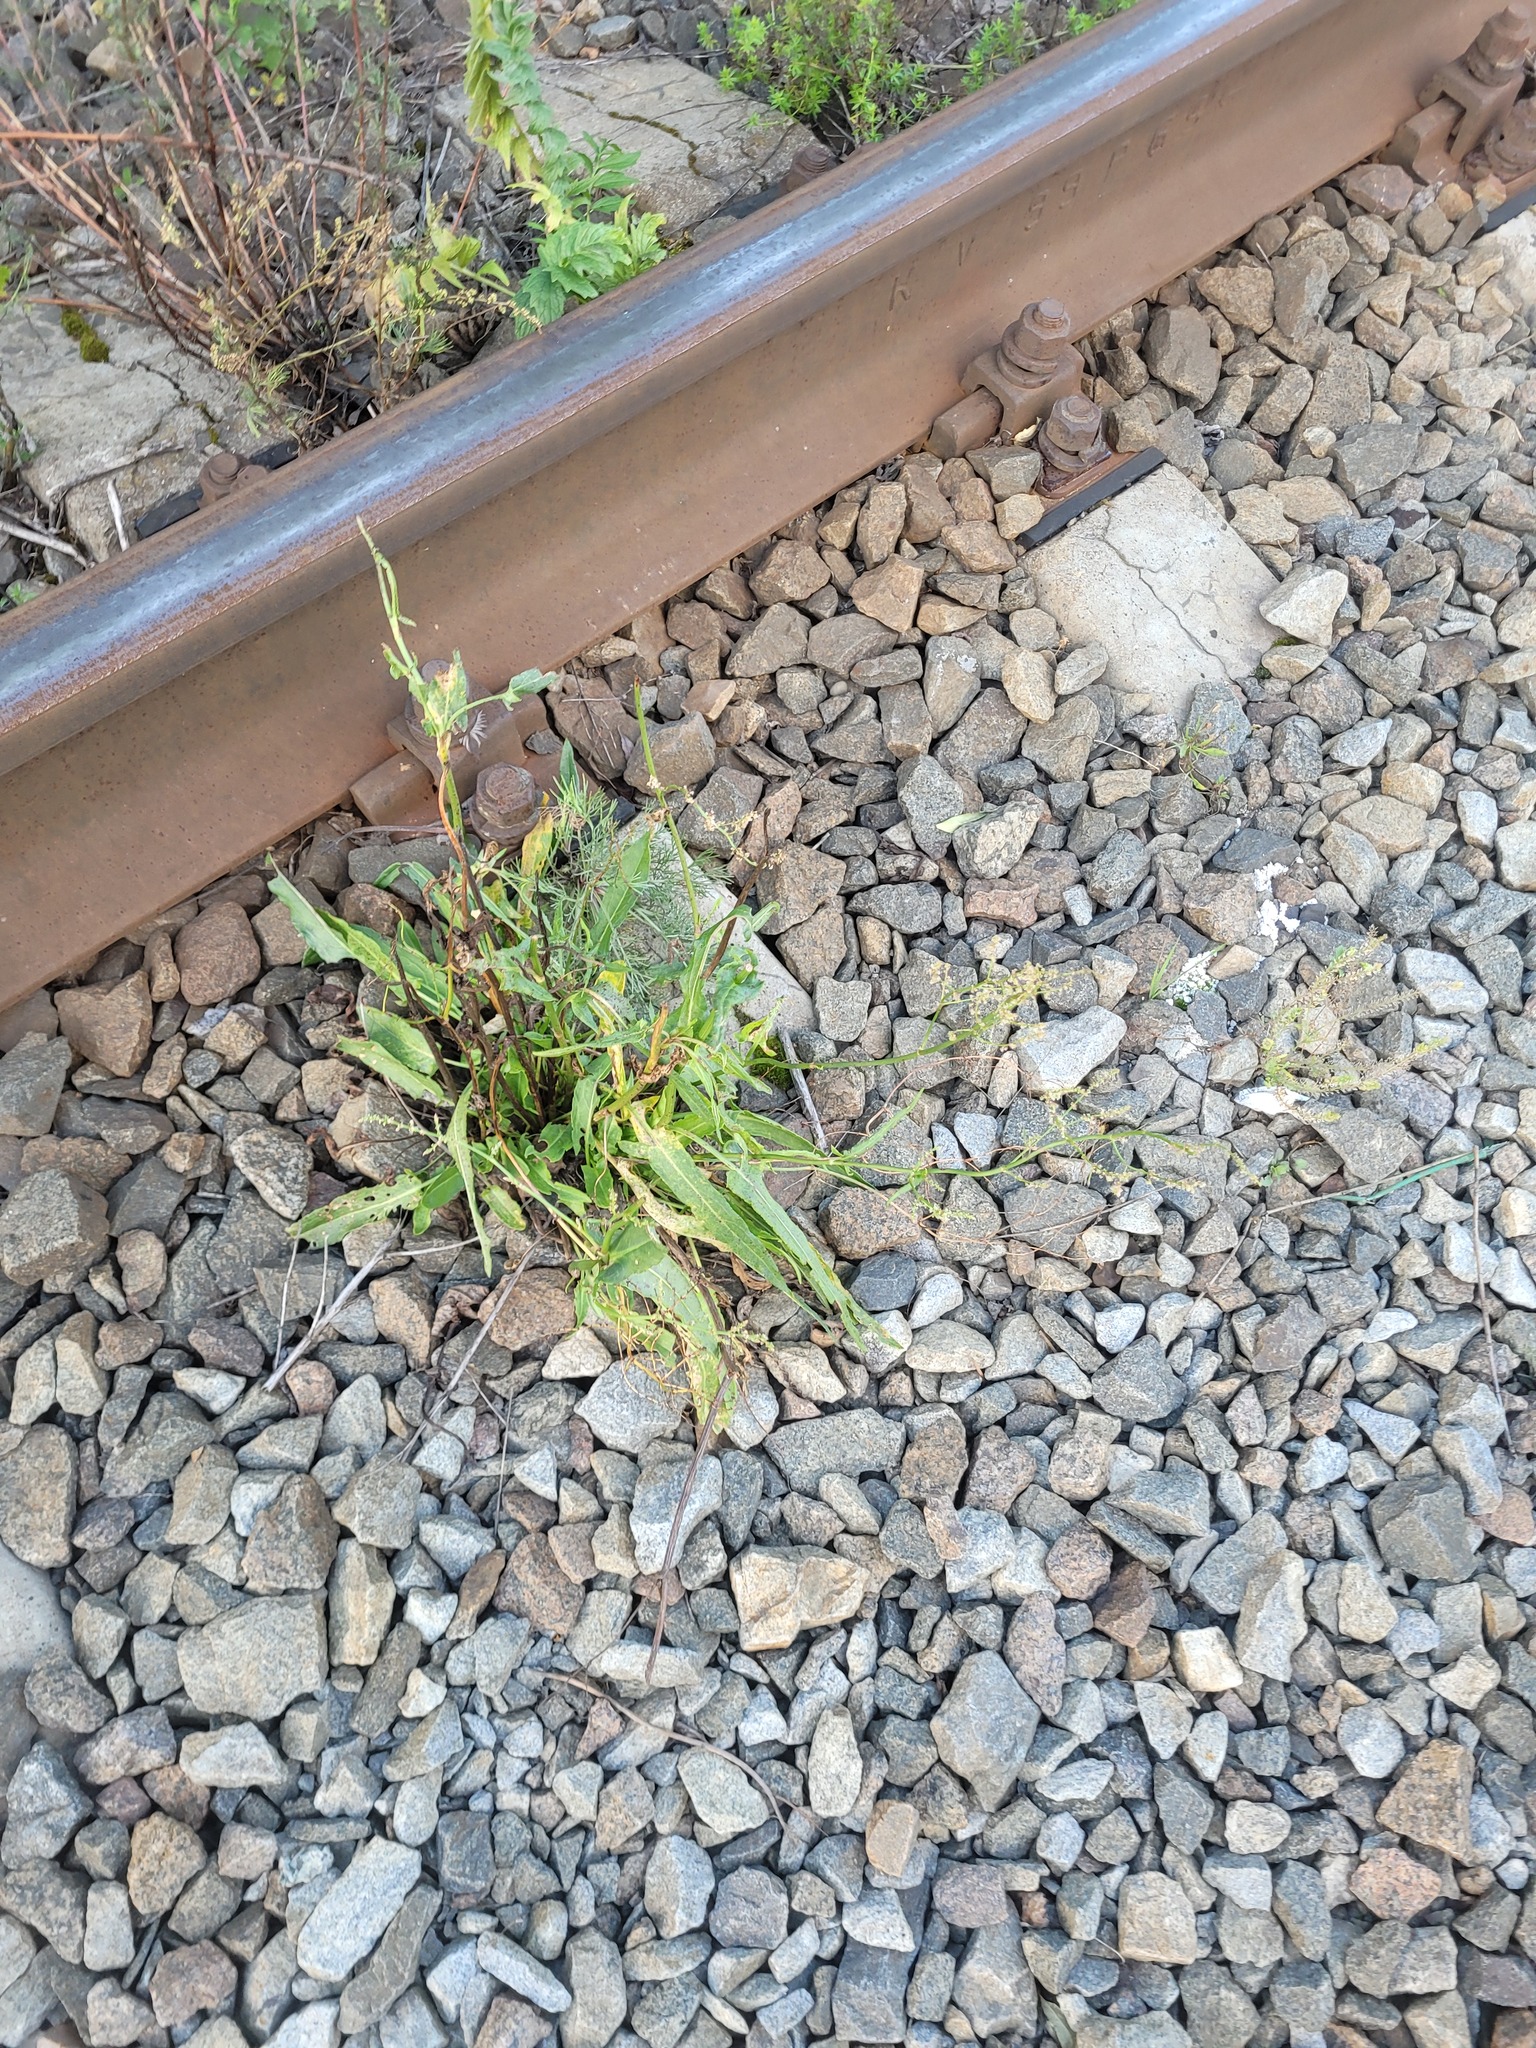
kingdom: Plantae
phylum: Tracheophyta
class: Magnoliopsida
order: Caryophyllales
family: Polygonaceae
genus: Rumex
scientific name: Rumex thyrsiflorus
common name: Garden sorrel
